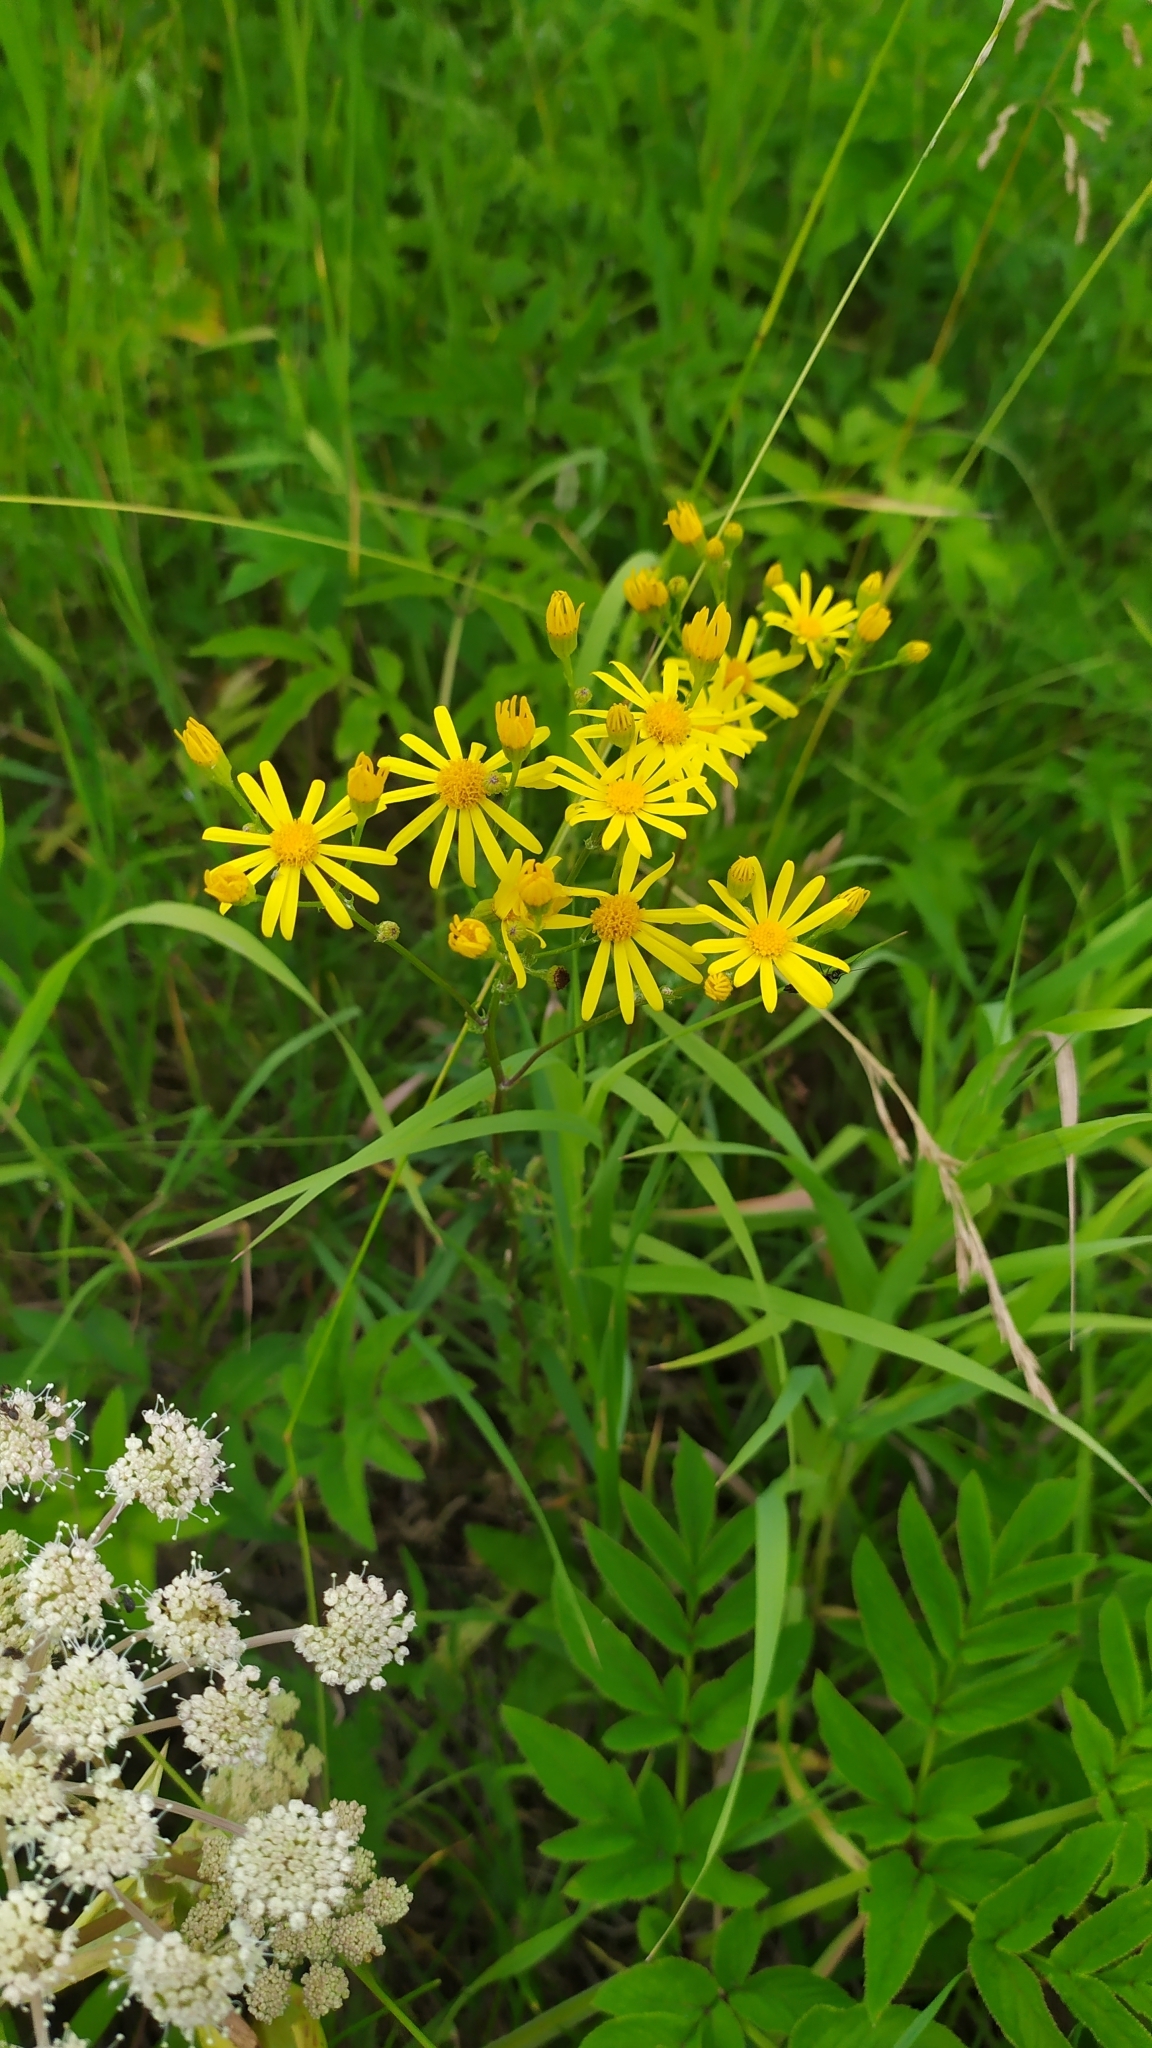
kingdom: Plantae
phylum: Tracheophyta
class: Magnoliopsida
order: Asterales
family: Asteraceae
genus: Jacobaea
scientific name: Jacobaea vulgaris
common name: Stinking willie
